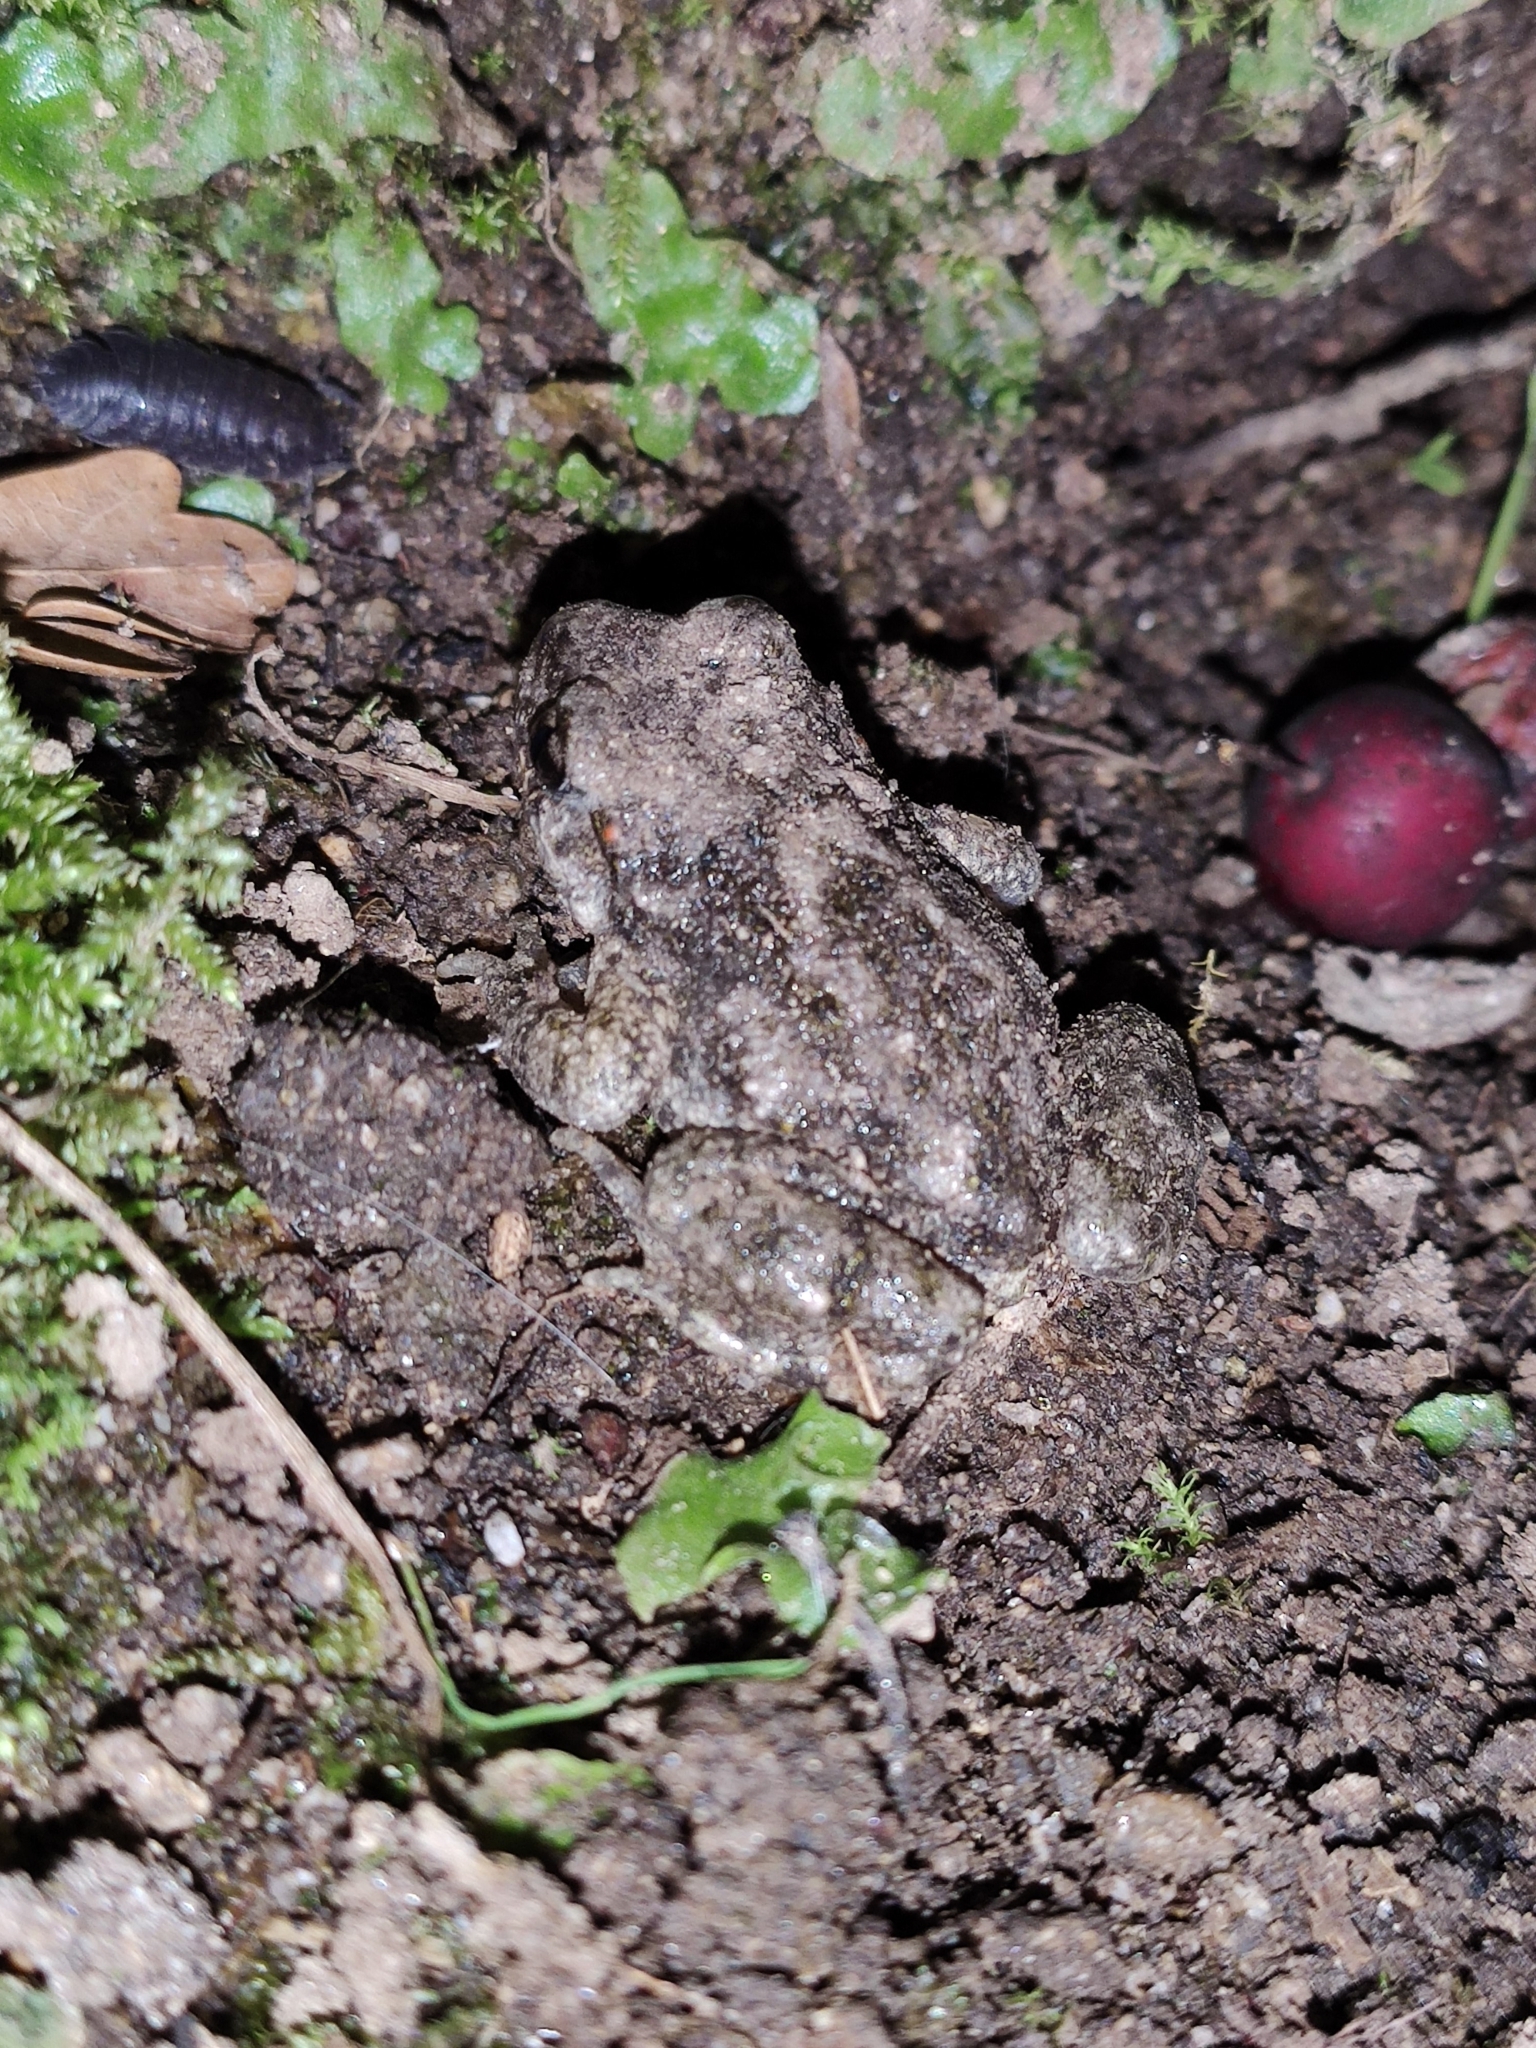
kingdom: Animalia
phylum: Chordata
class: Amphibia
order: Anura
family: Alytidae
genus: Alytes
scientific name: Alytes obstetricans
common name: Midwife toad
